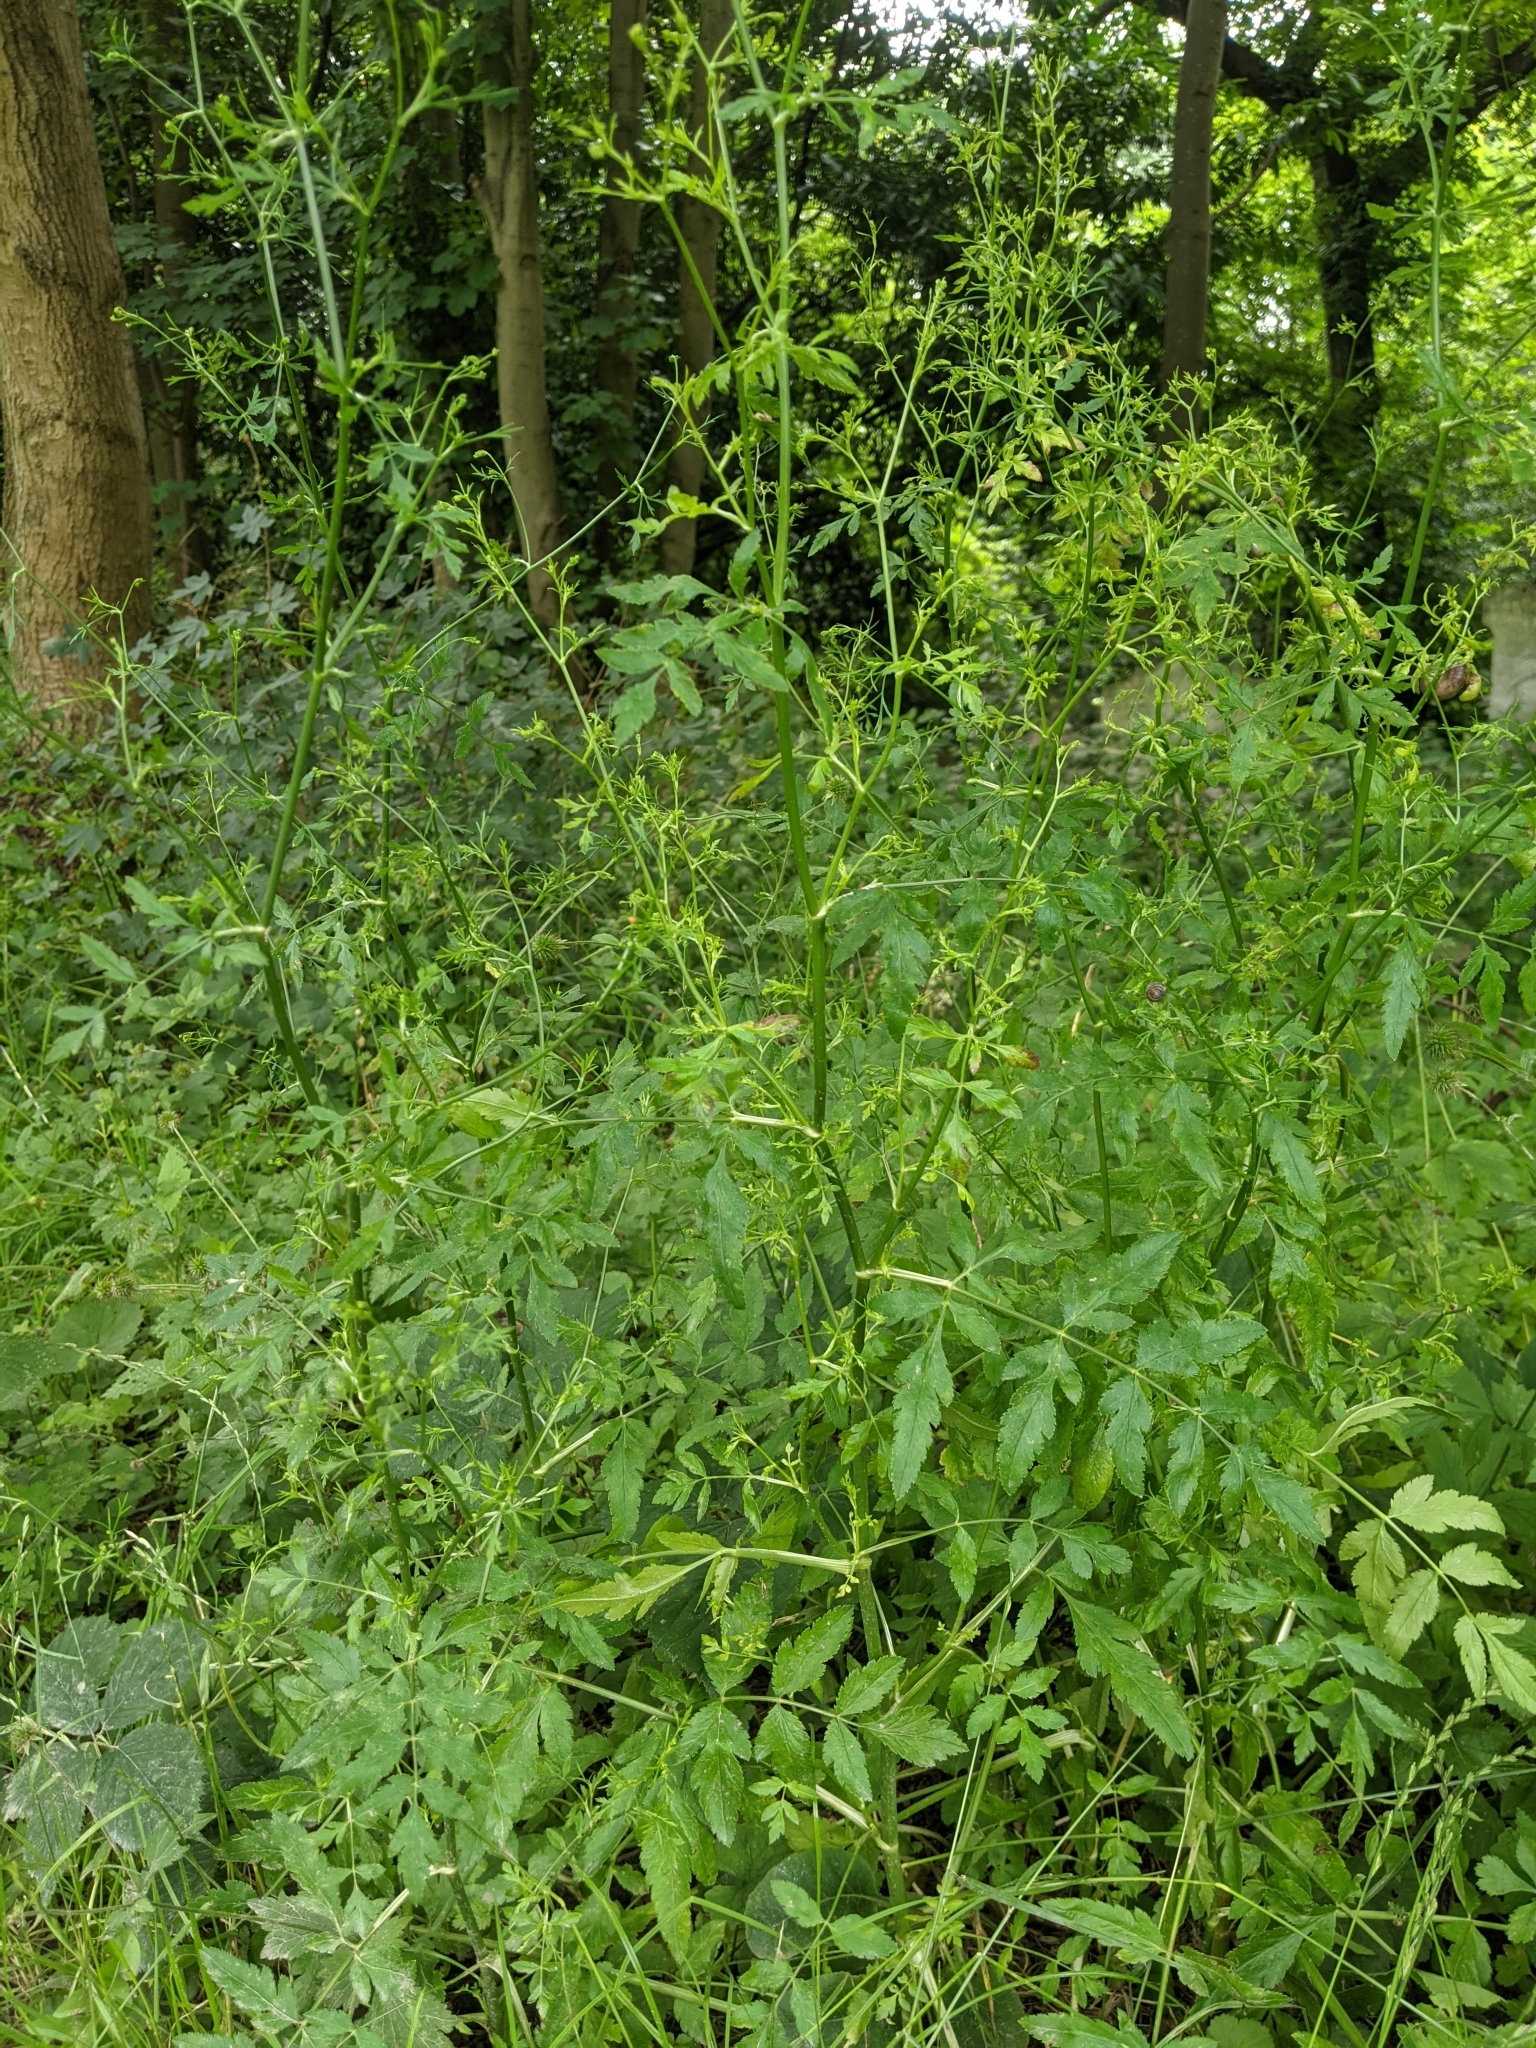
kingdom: Plantae
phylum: Tracheophyta
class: Magnoliopsida
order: Apiales
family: Apiaceae
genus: Sison
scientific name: Sison amomum
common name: Stone-parsley
